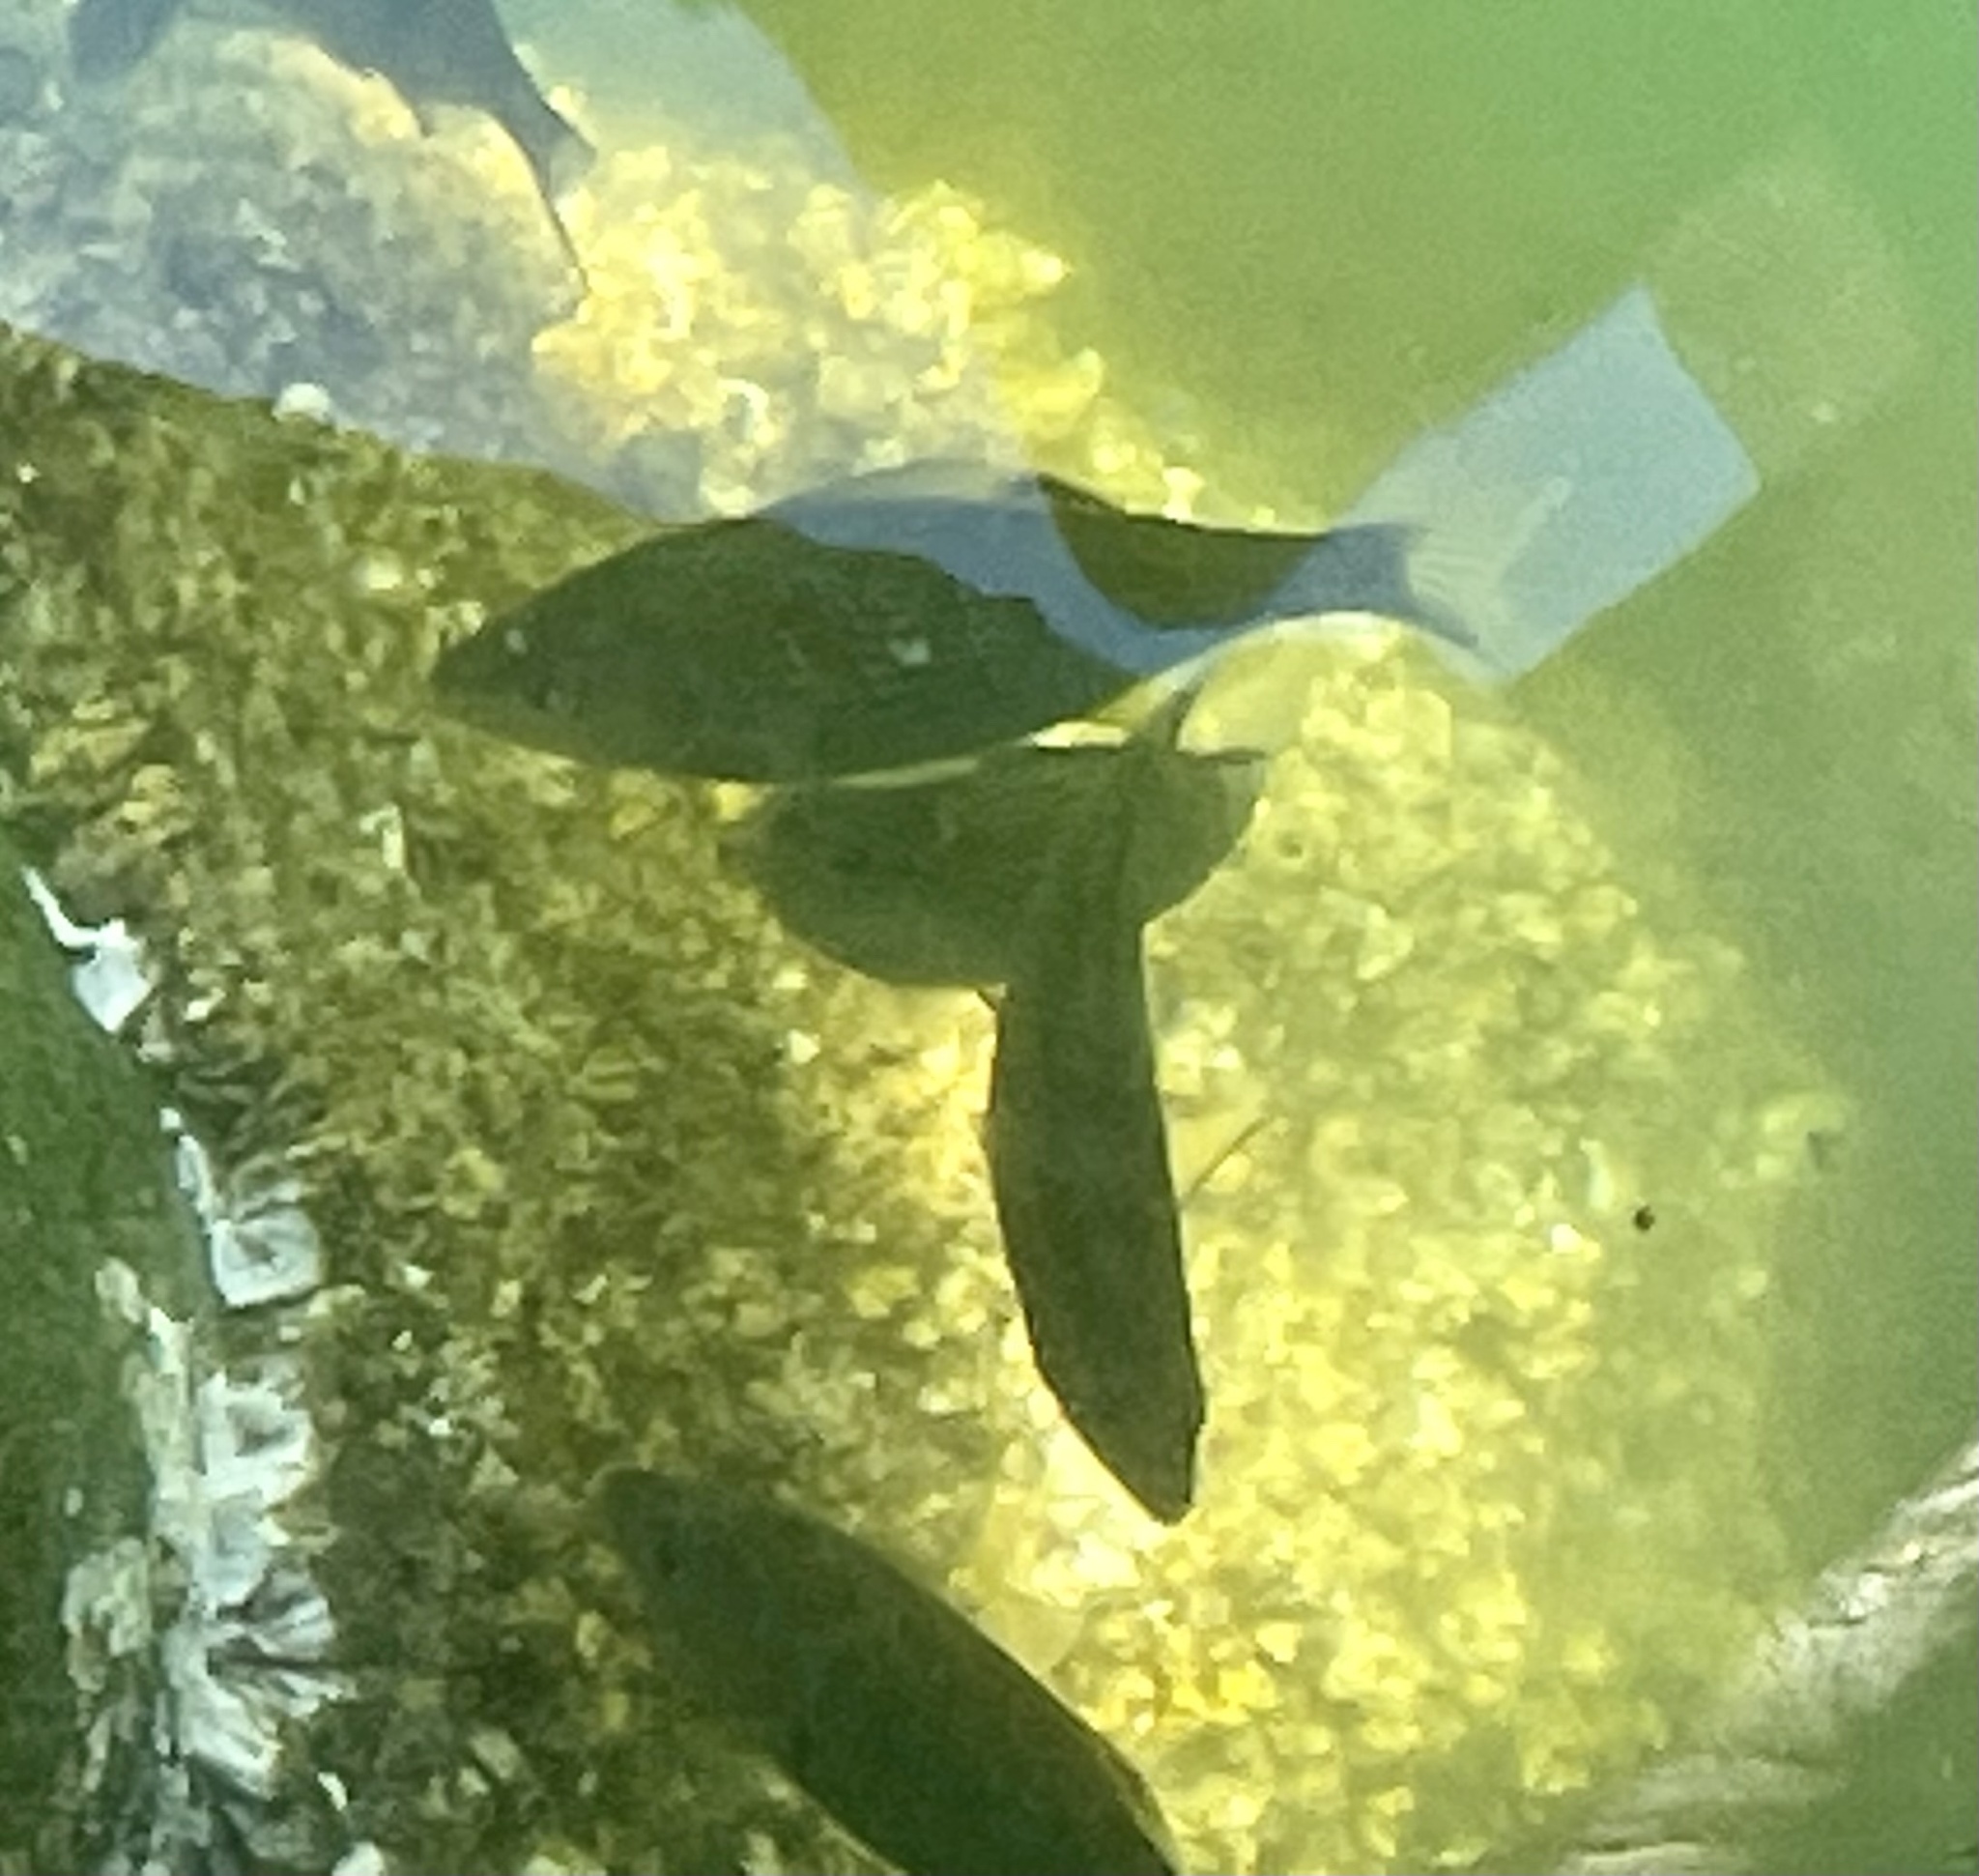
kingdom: Animalia
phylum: Chordata
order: Perciformes
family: Embiotocidae
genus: Cymatogaster
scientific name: Cymatogaster aggregata
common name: Shiner perch
